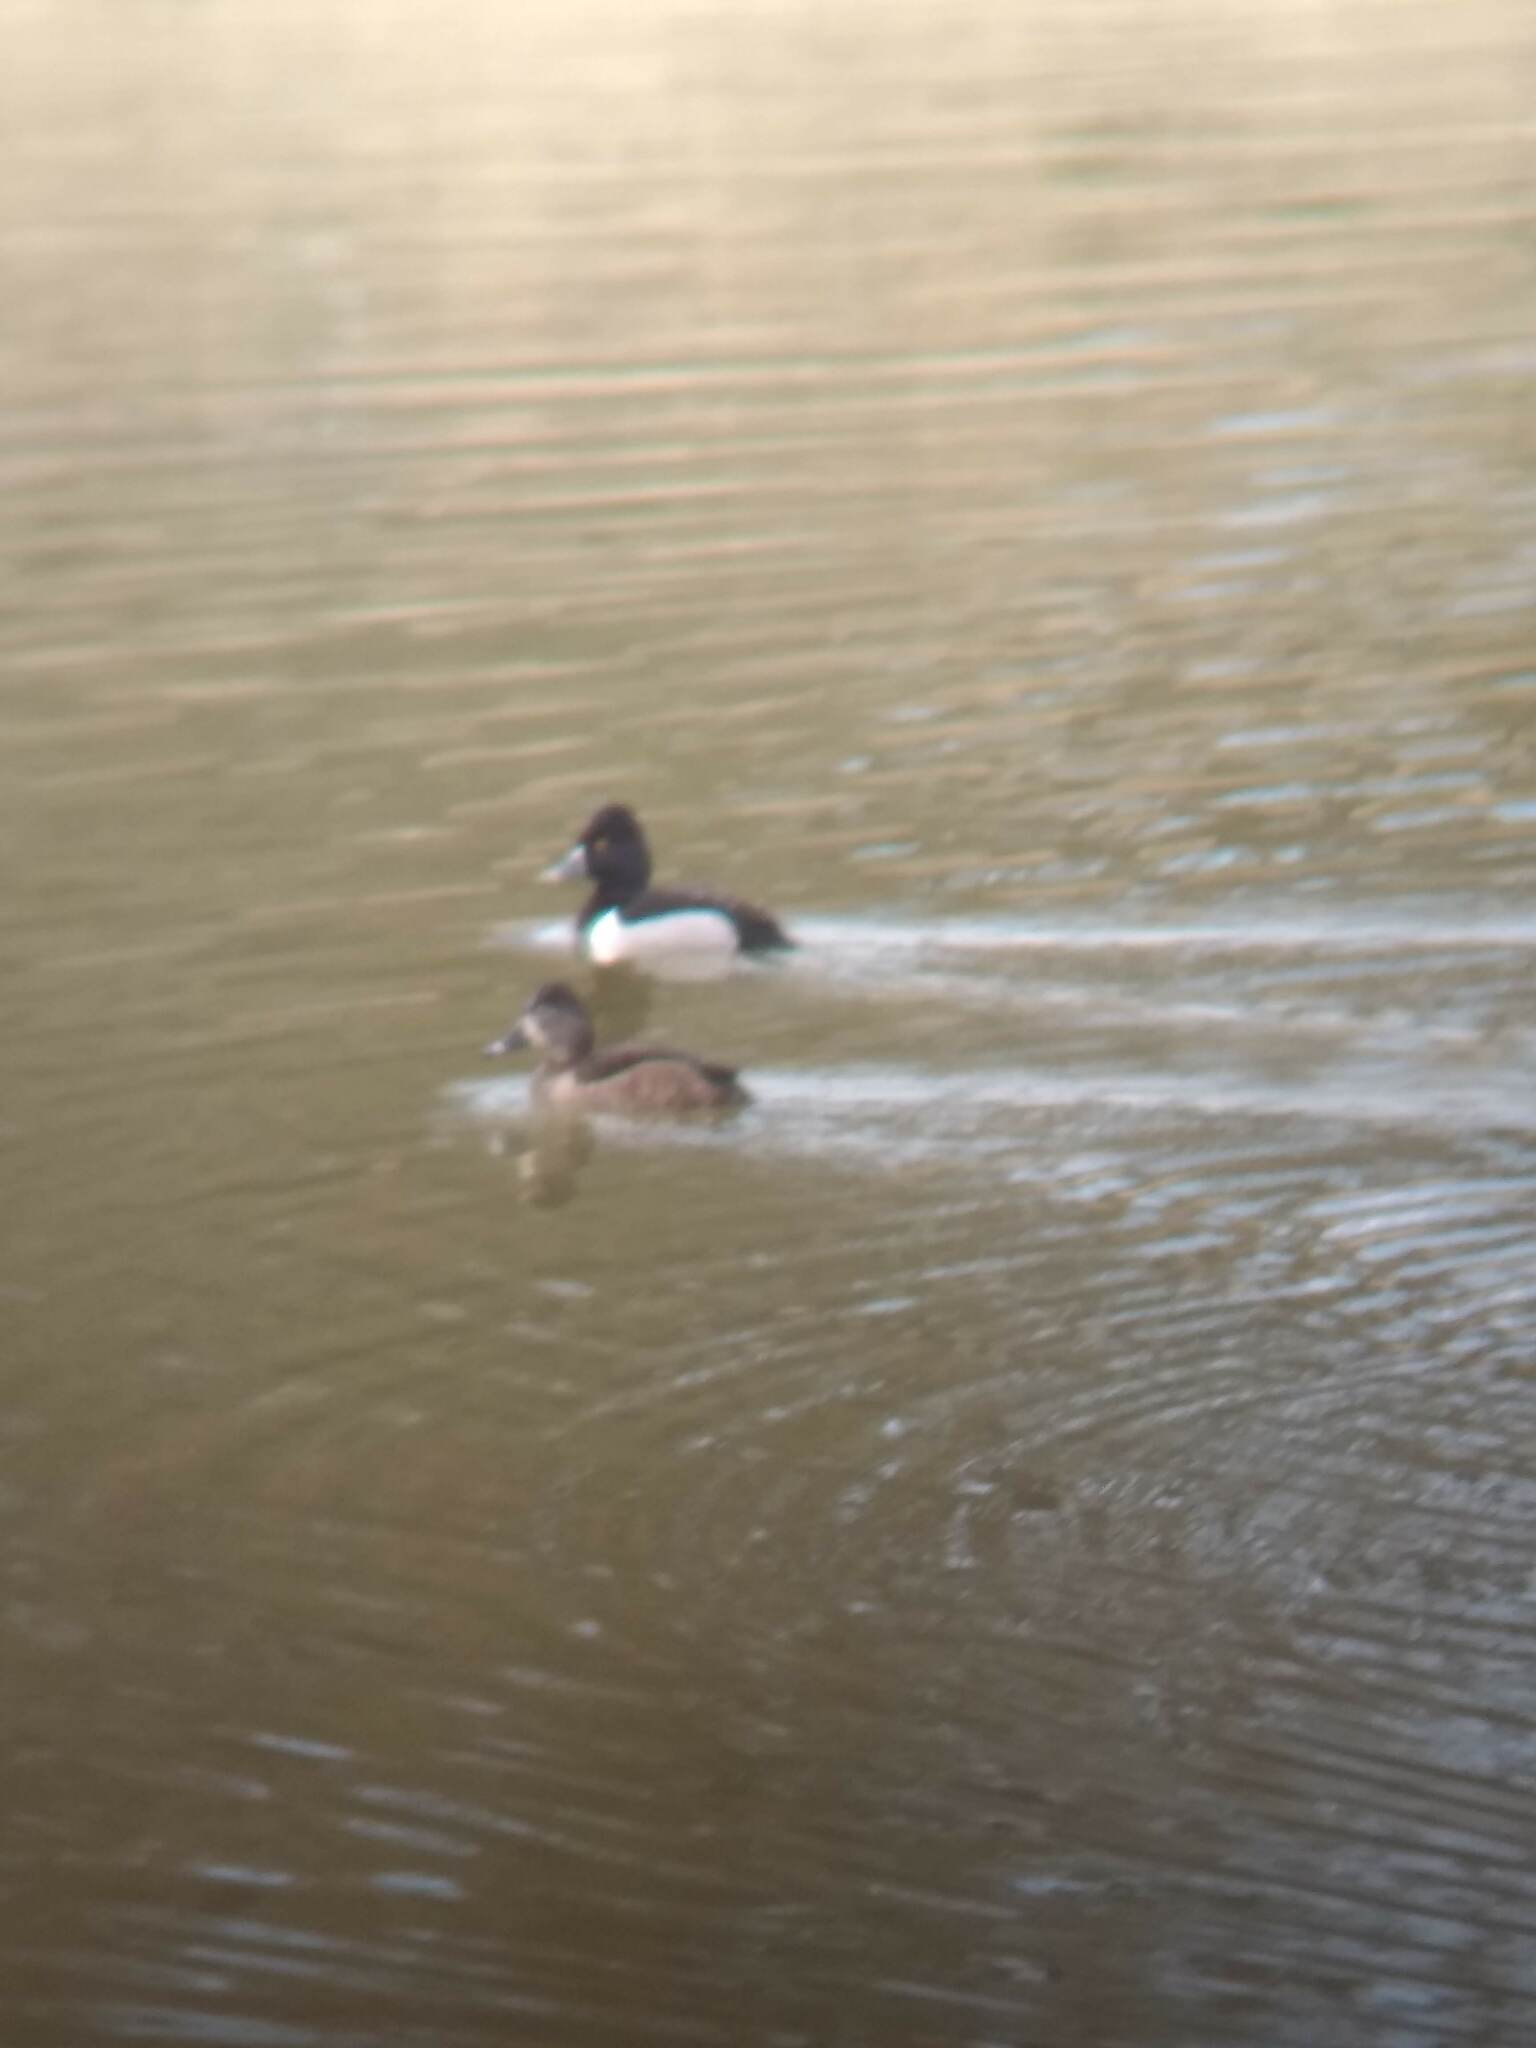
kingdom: Animalia
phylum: Chordata
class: Aves
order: Anseriformes
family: Anatidae
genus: Aythya
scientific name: Aythya collaris
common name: Ring-necked duck
